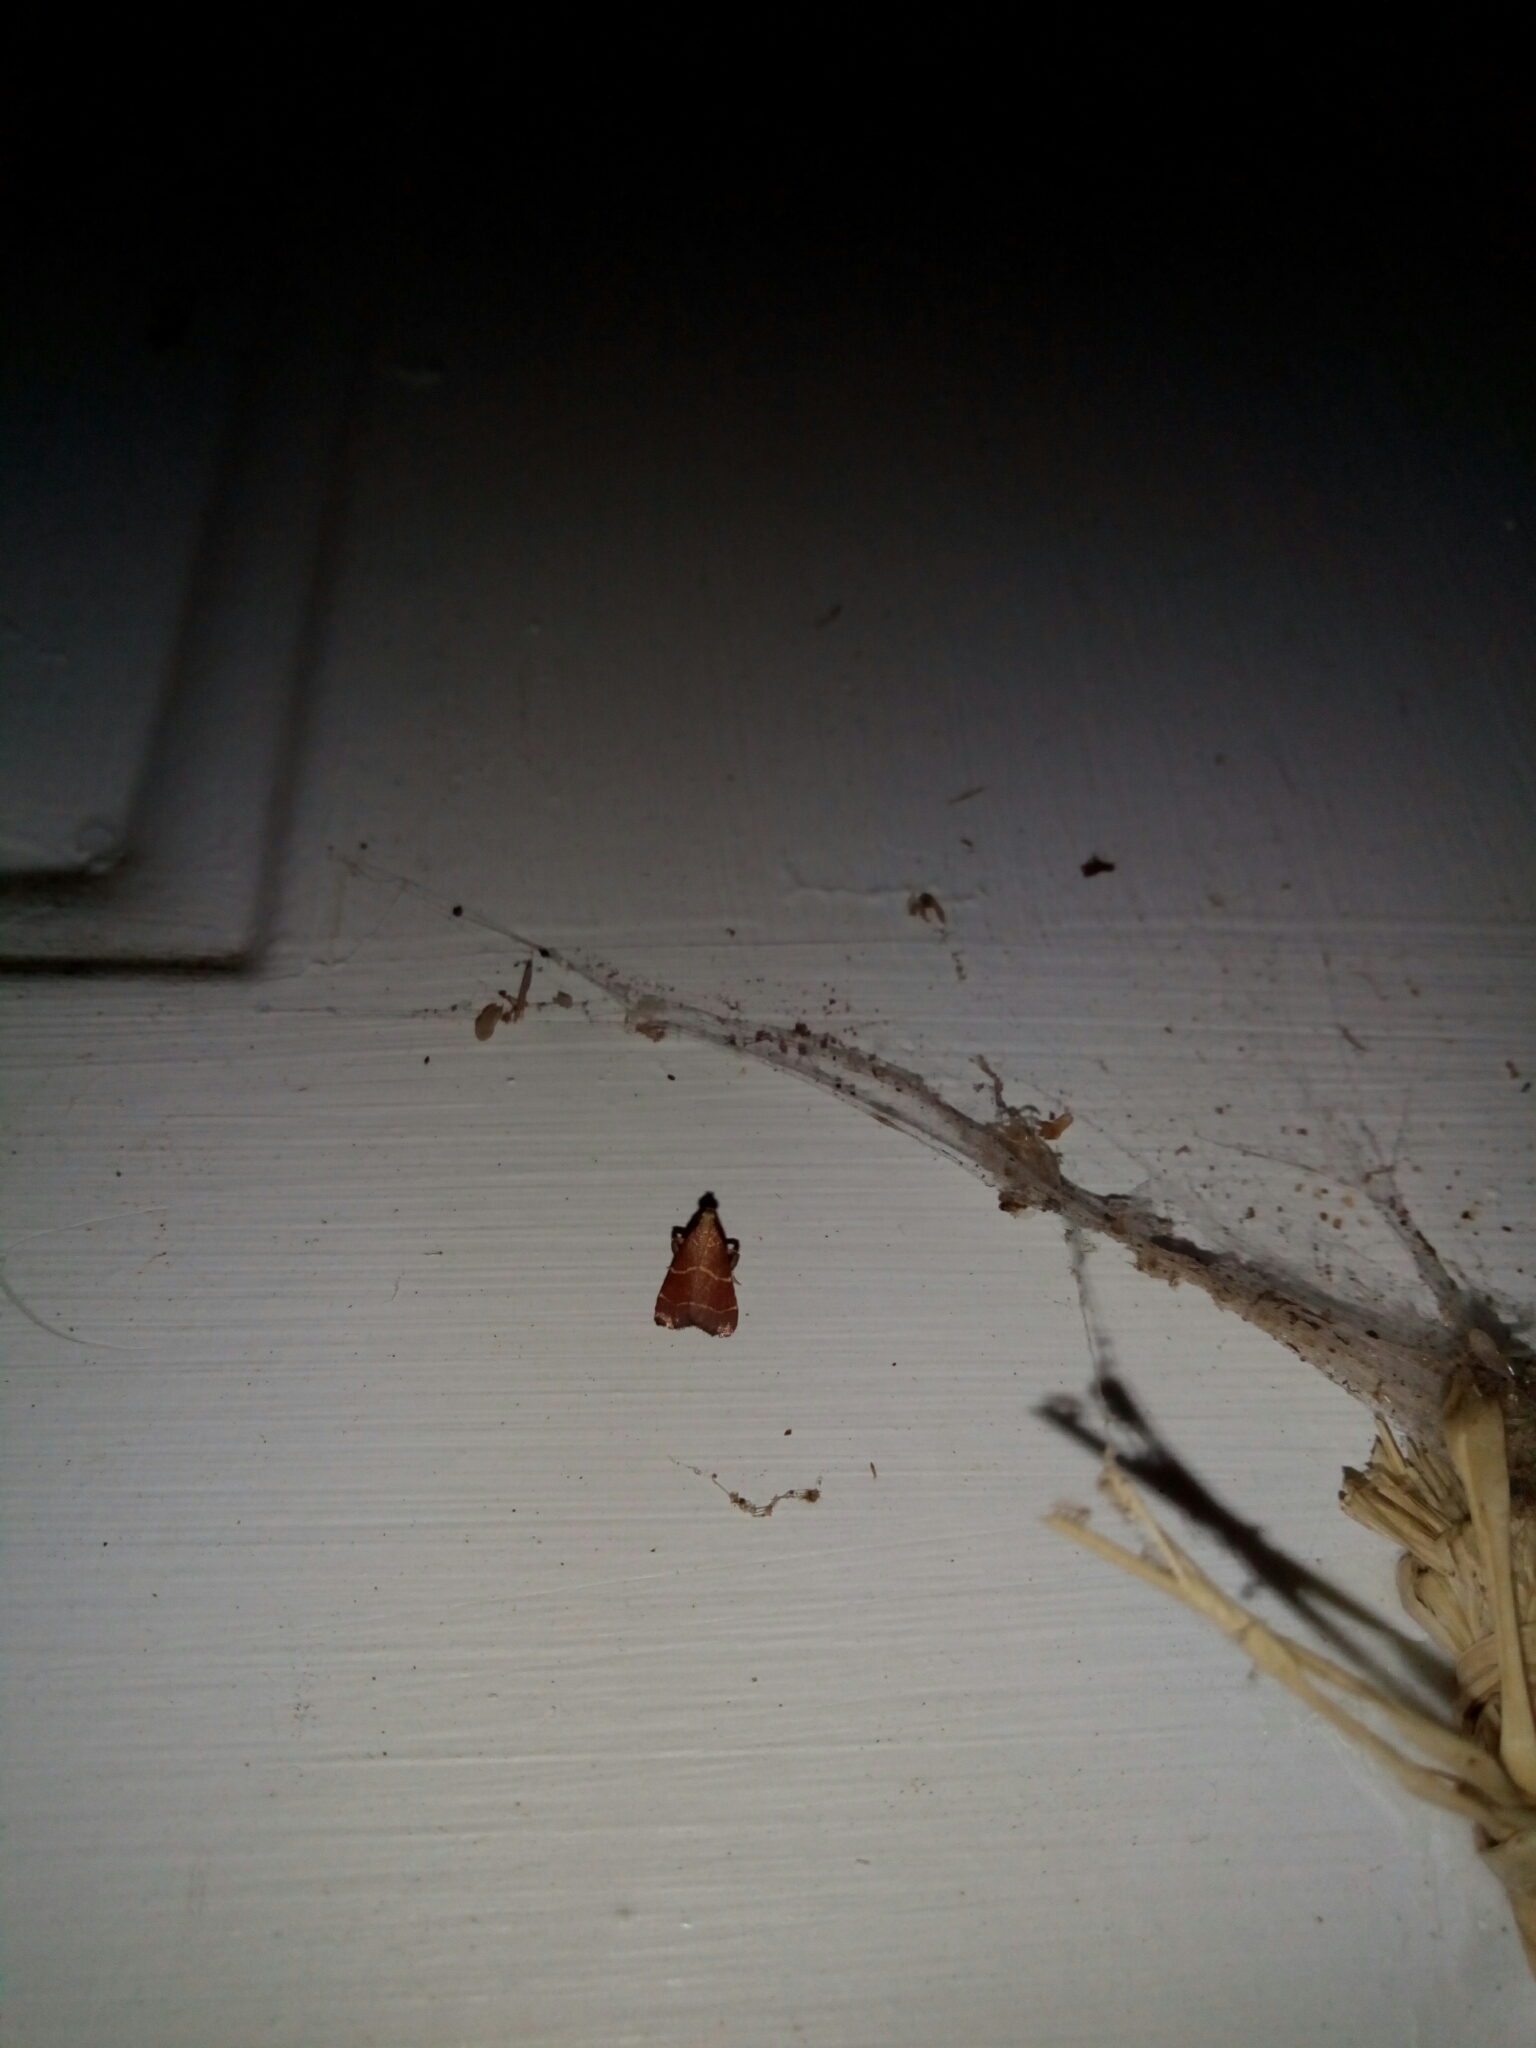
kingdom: Animalia
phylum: Arthropoda
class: Insecta
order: Lepidoptera
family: Pyralidae
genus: Arta
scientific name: Arta statalis
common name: Posturing arta moth
